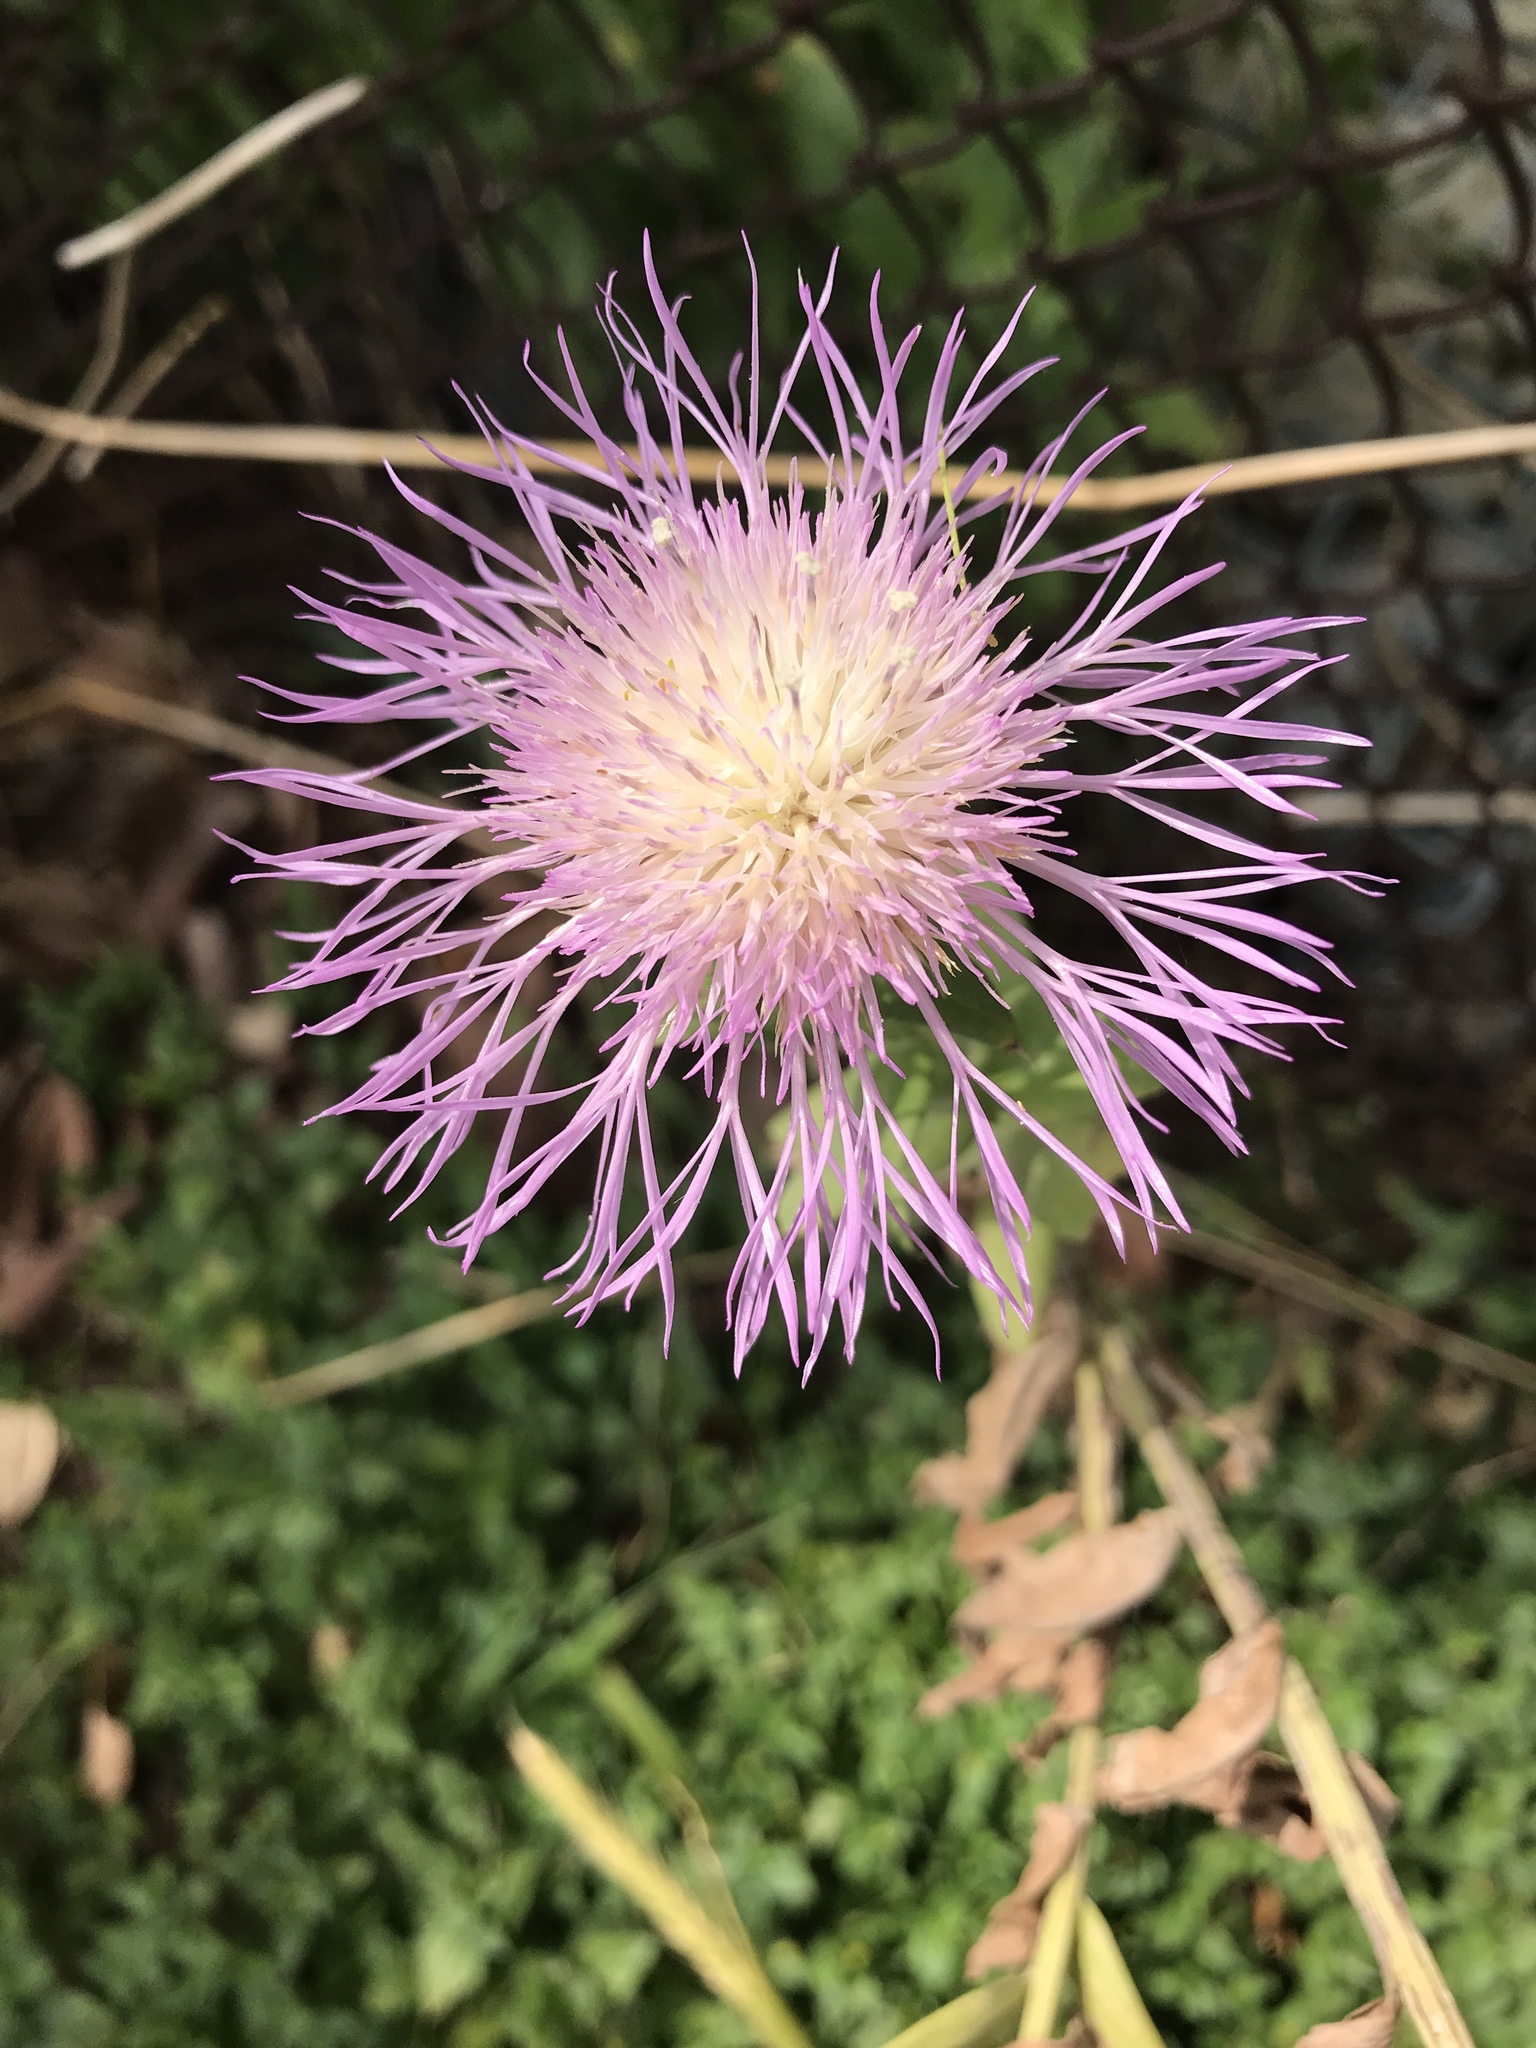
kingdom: Plantae
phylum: Tracheophyta
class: Magnoliopsida
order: Asterales
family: Asteraceae
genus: Plectocephalus
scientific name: Plectocephalus americanus
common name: American basket-flower
